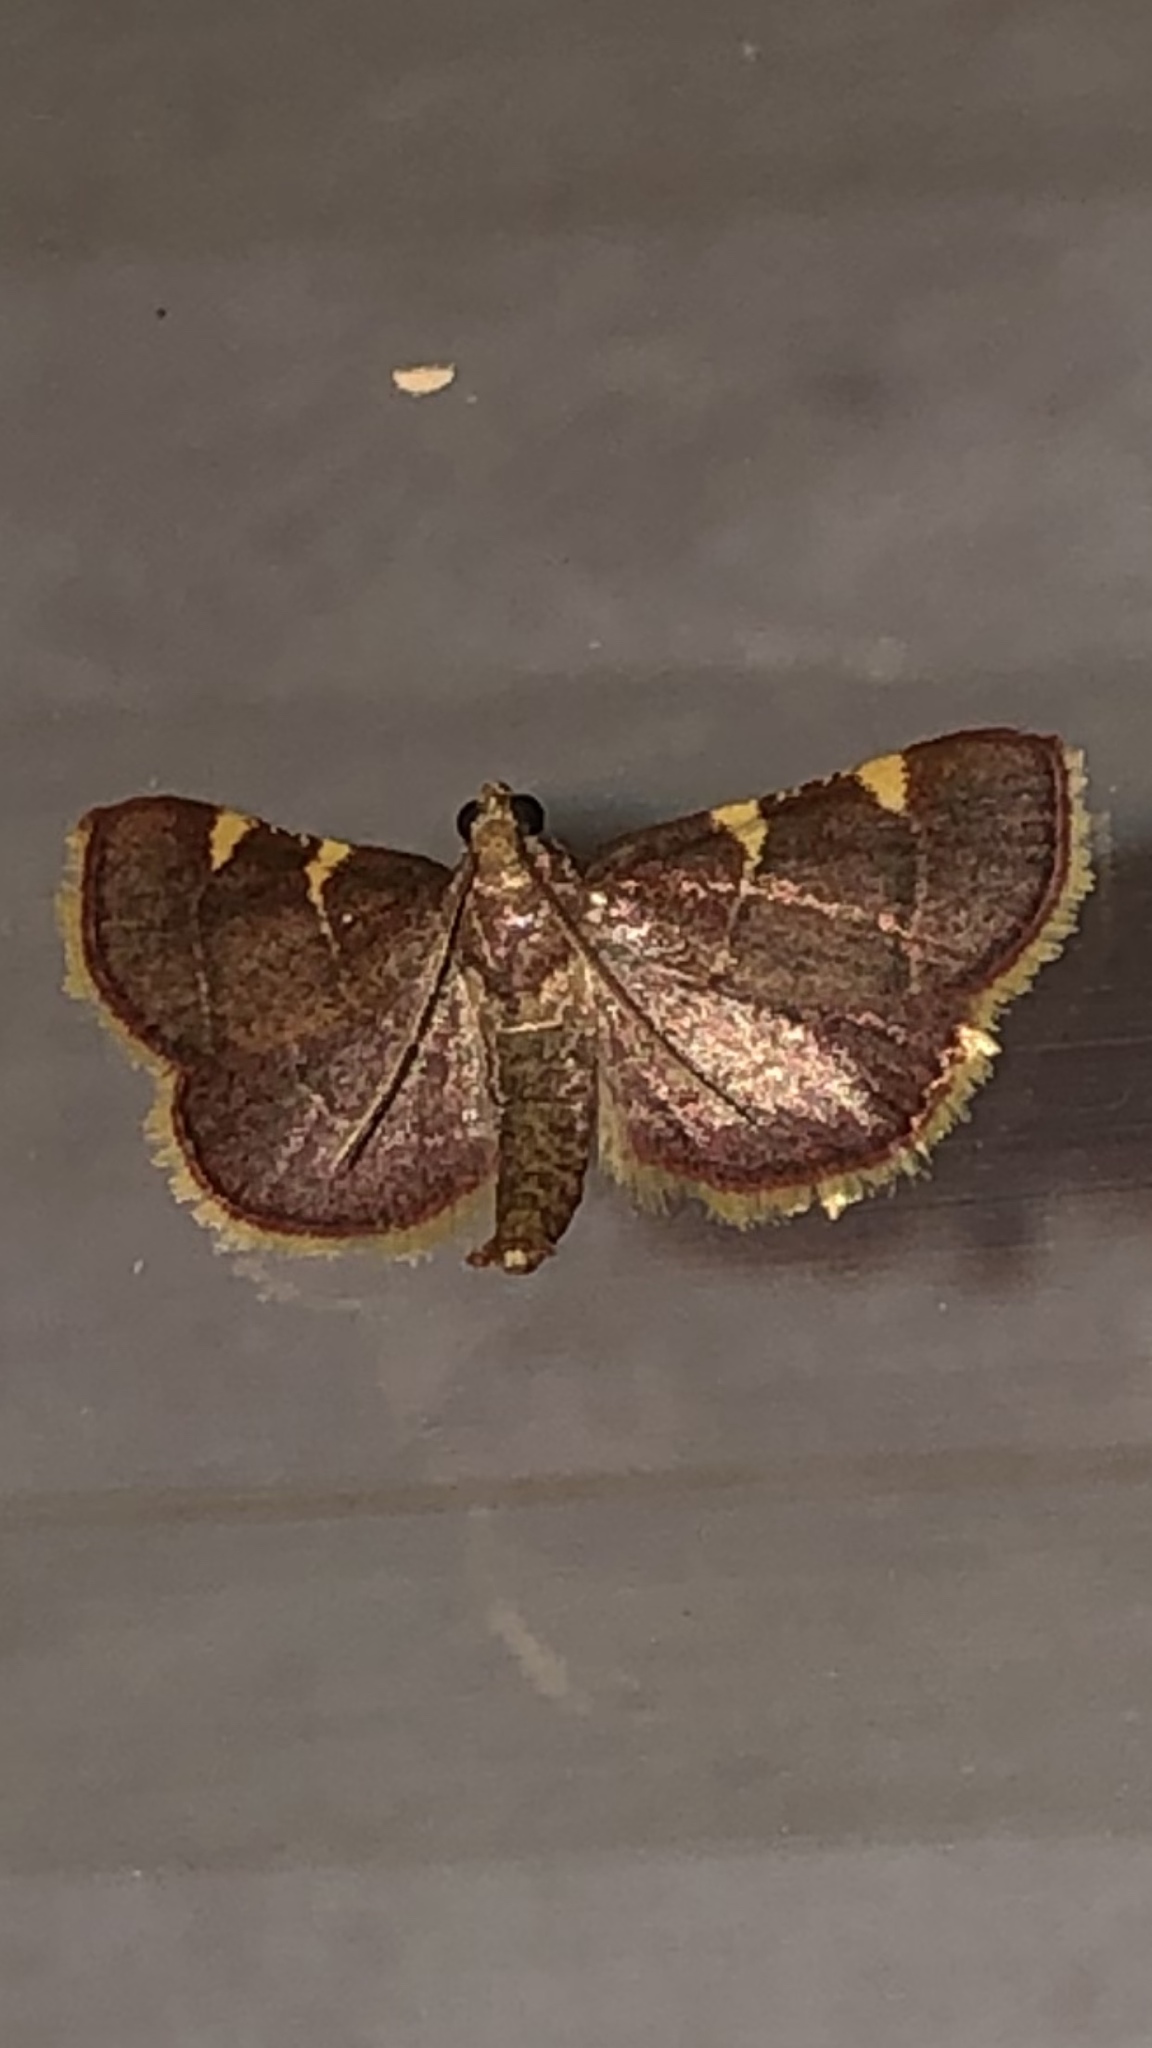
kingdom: Animalia
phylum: Arthropoda
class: Insecta
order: Lepidoptera
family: Pyralidae
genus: Hypsopygia
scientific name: Hypsopygia olinalis
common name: Yellow-fringed dolichomia moth
